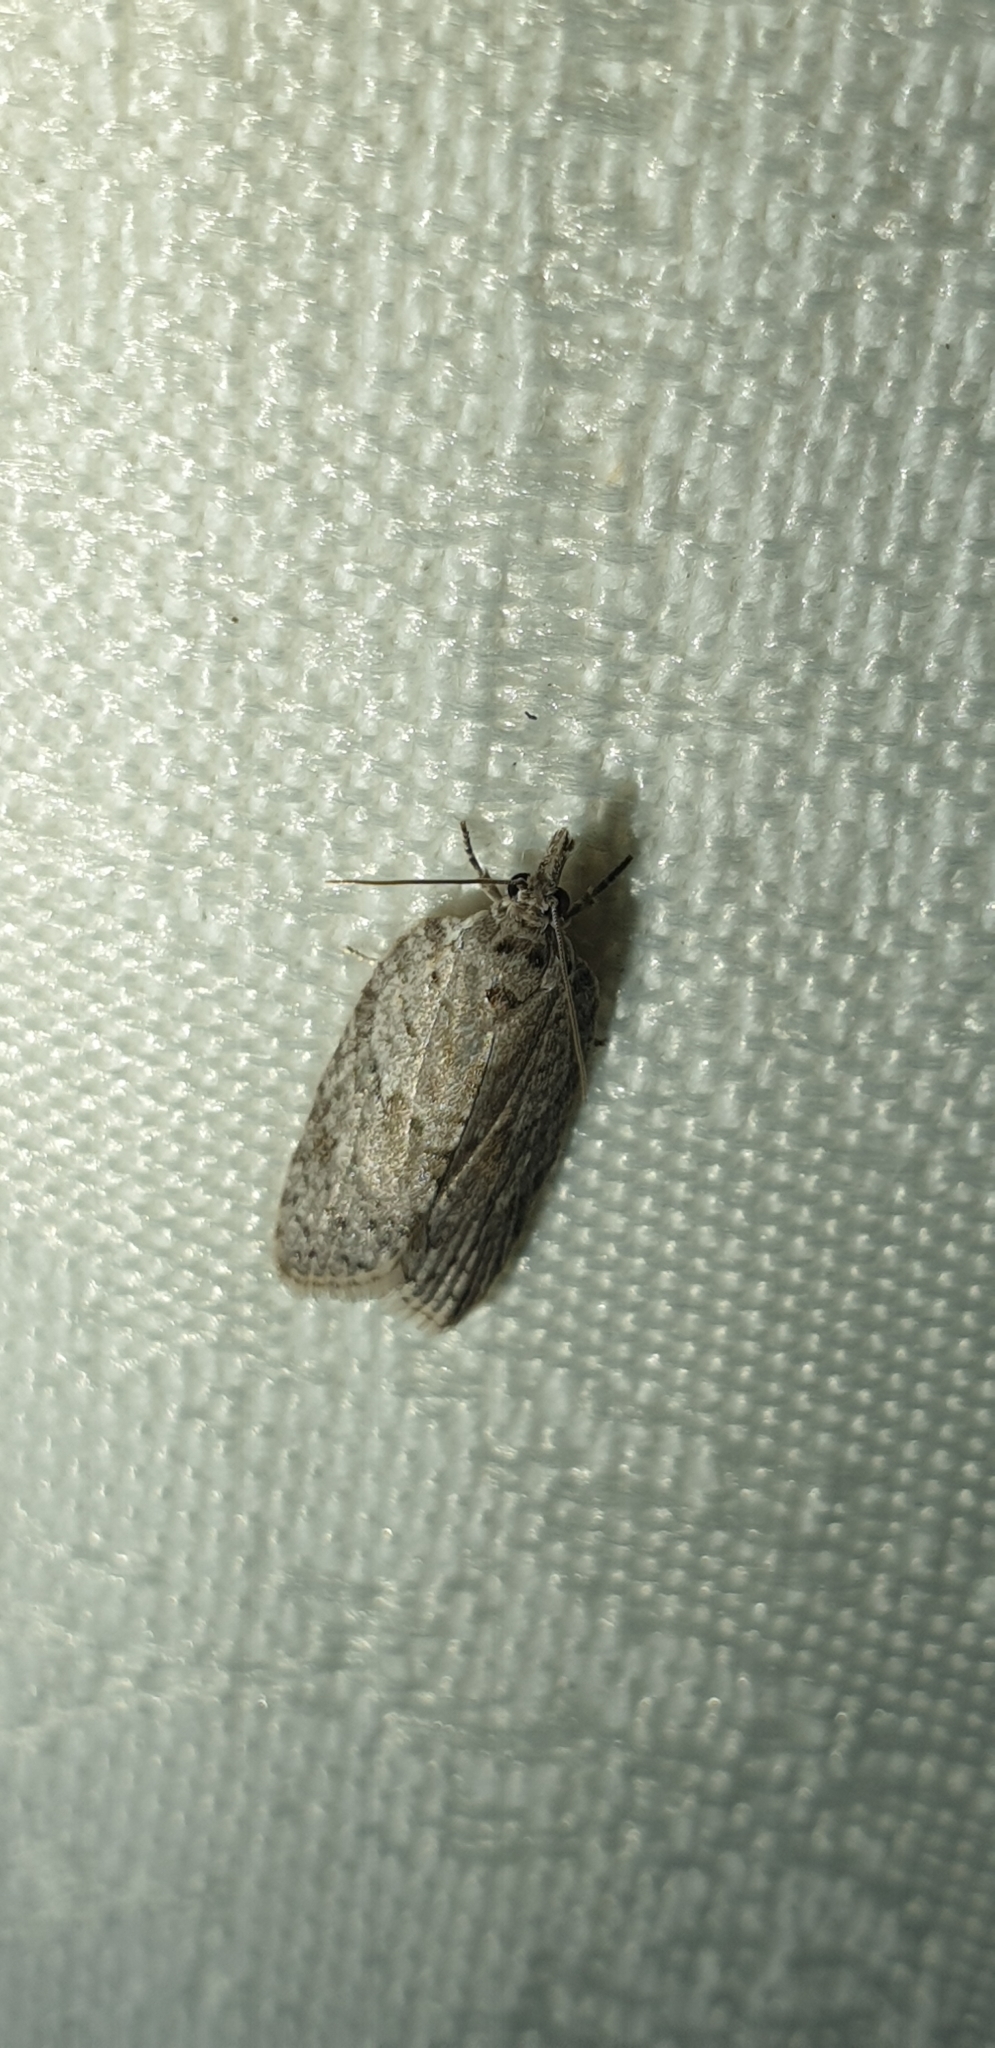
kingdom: Animalia
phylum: Arthropoda
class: Insecta
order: Lepidoptera
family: Tortricidae
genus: Isotenes
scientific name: Isotenes miserana
